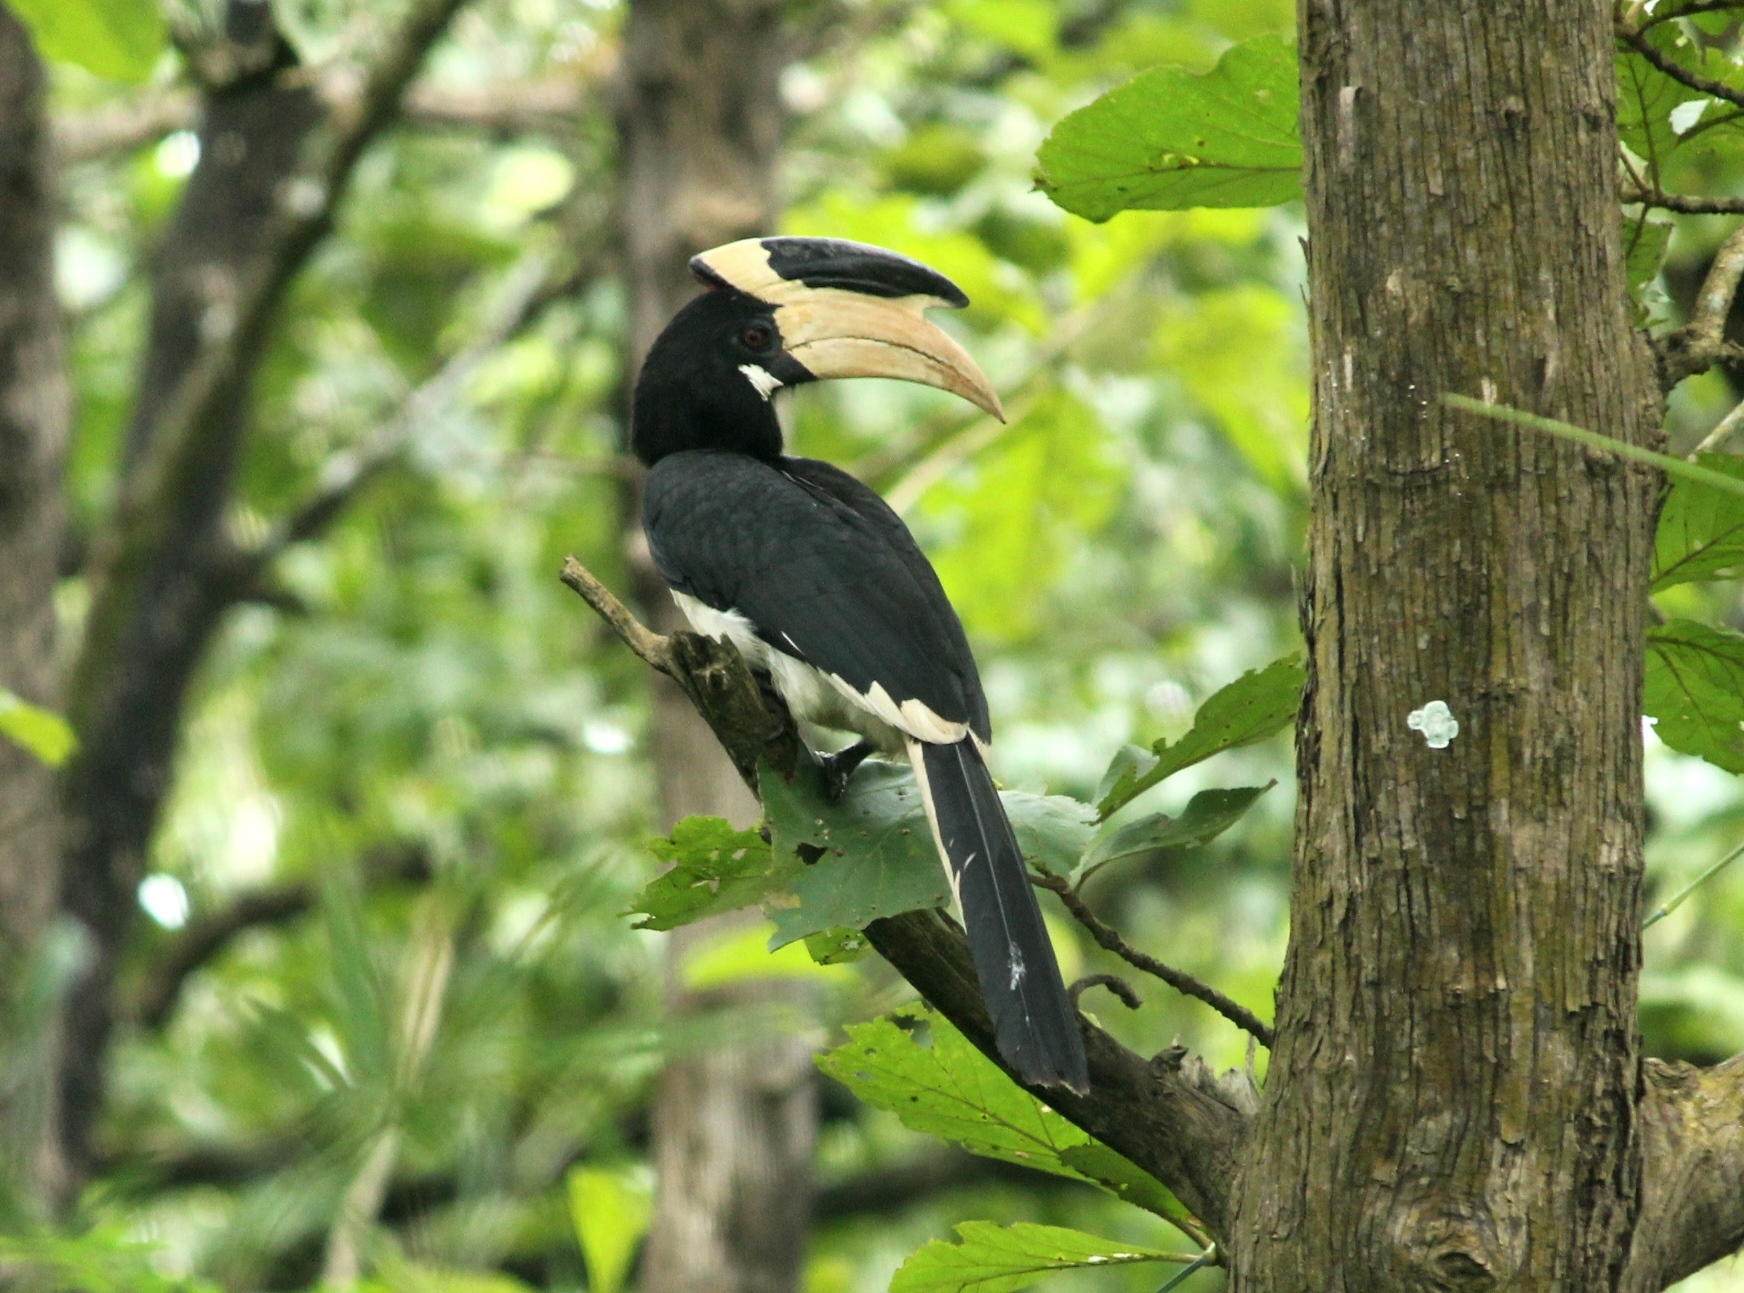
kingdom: Animalia
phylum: Chordata
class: Aves
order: Bucerotiformes
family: Bucerotidae
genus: Anthracoceros
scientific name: Anthracoceros coronatus
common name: Malabar pied hornbill
